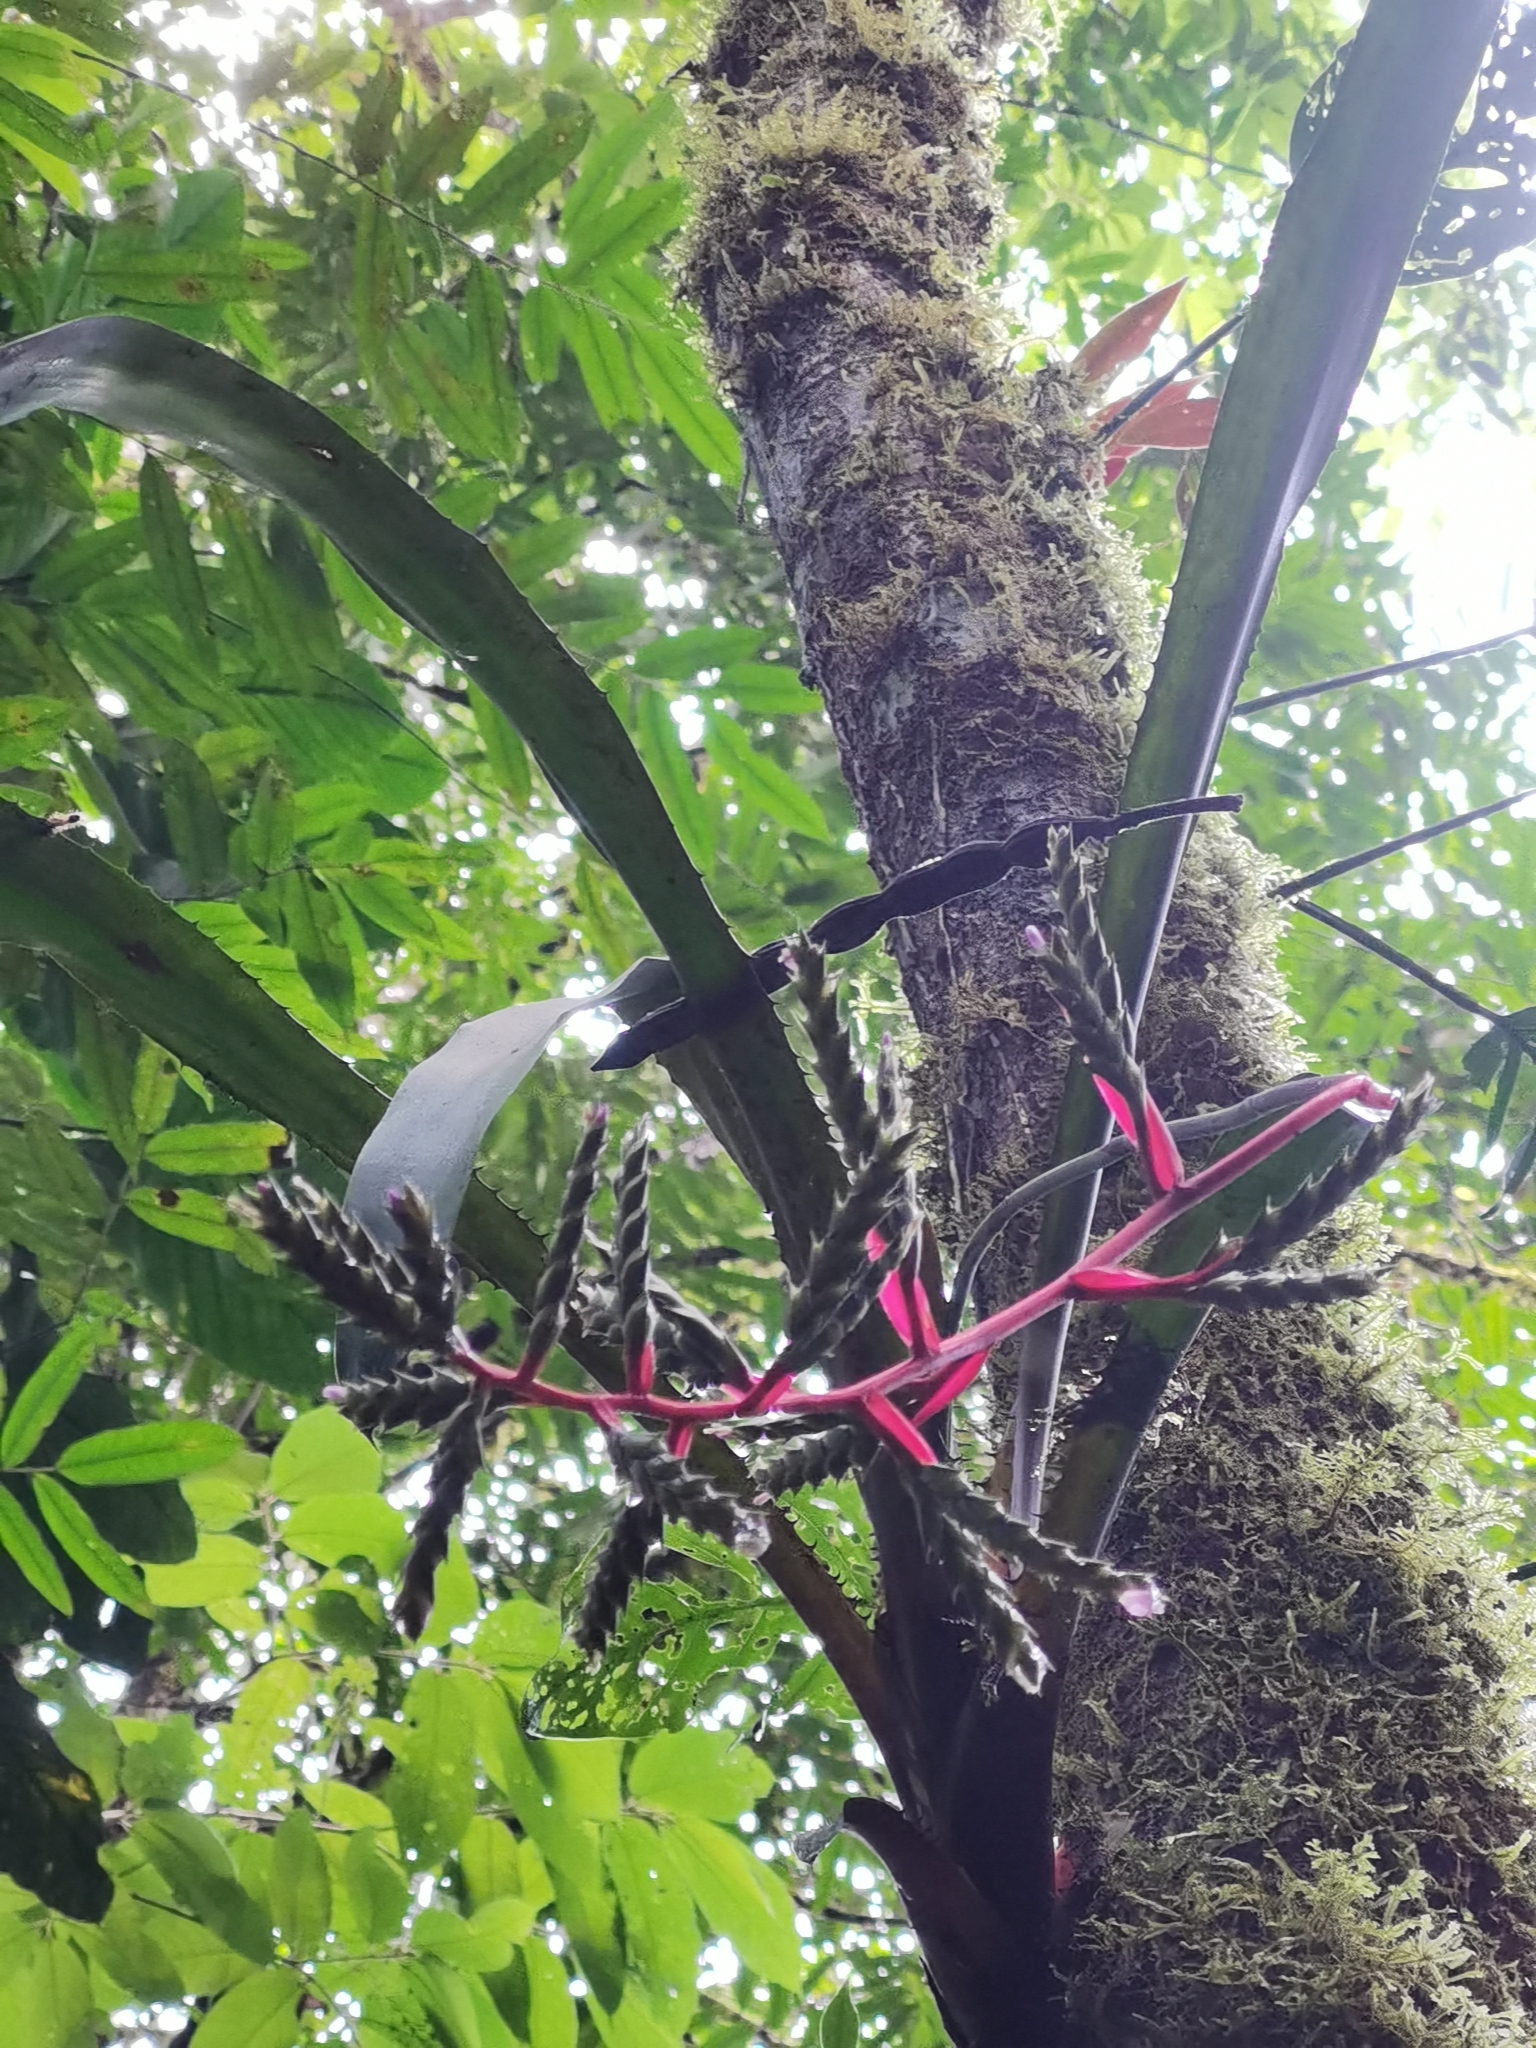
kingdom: Plantae
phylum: Tracheophyta
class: Liliopsida
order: Poales
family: Bromeliaceae
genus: Aechmea
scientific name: Aechmea pittieri
